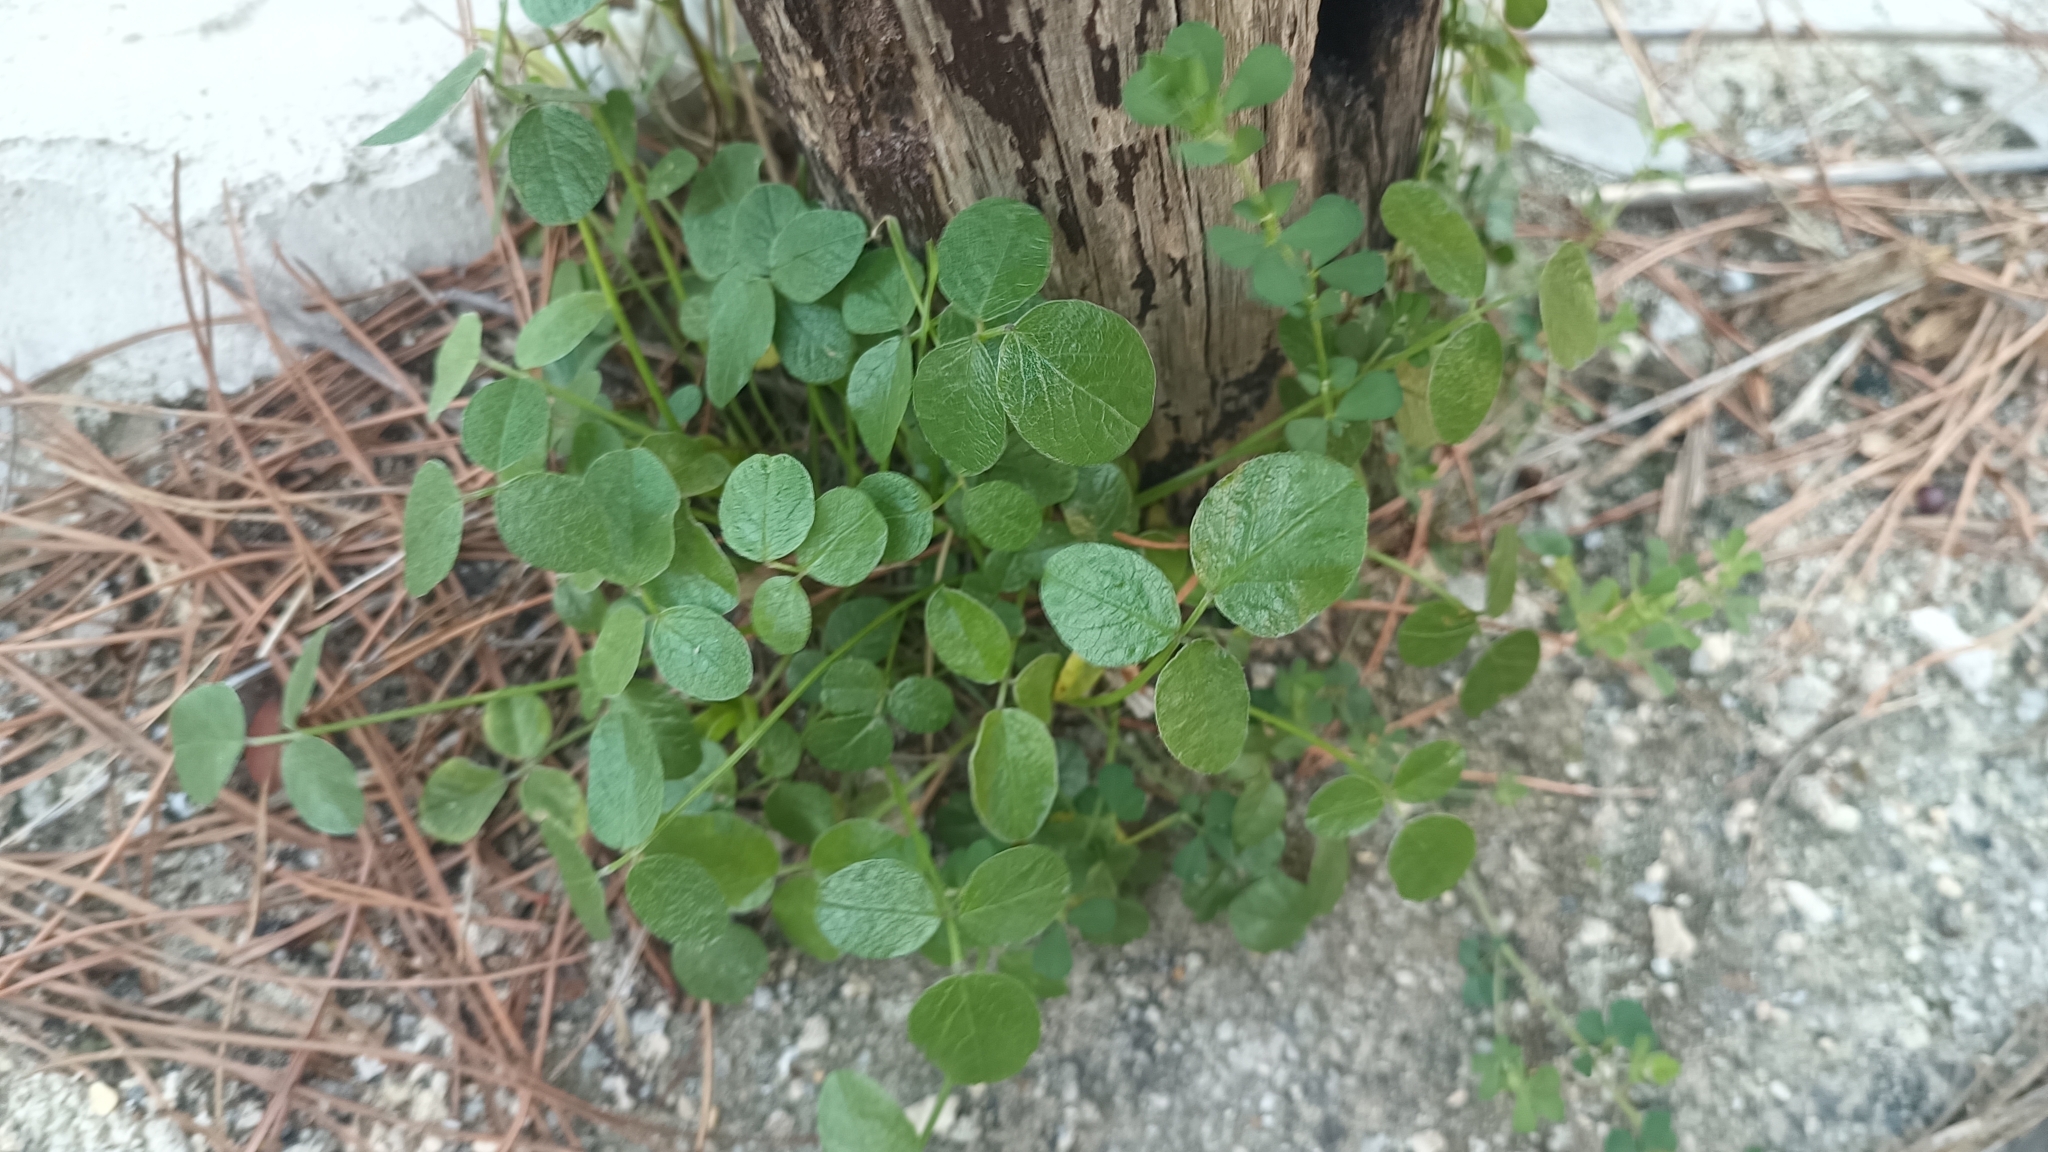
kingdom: Plantae
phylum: Tracheophyta
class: Magnoliopsida
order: Fabales
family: Fabaceae
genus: Bituminaria
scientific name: Bituminaria bituminosa
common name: Arabian pea
